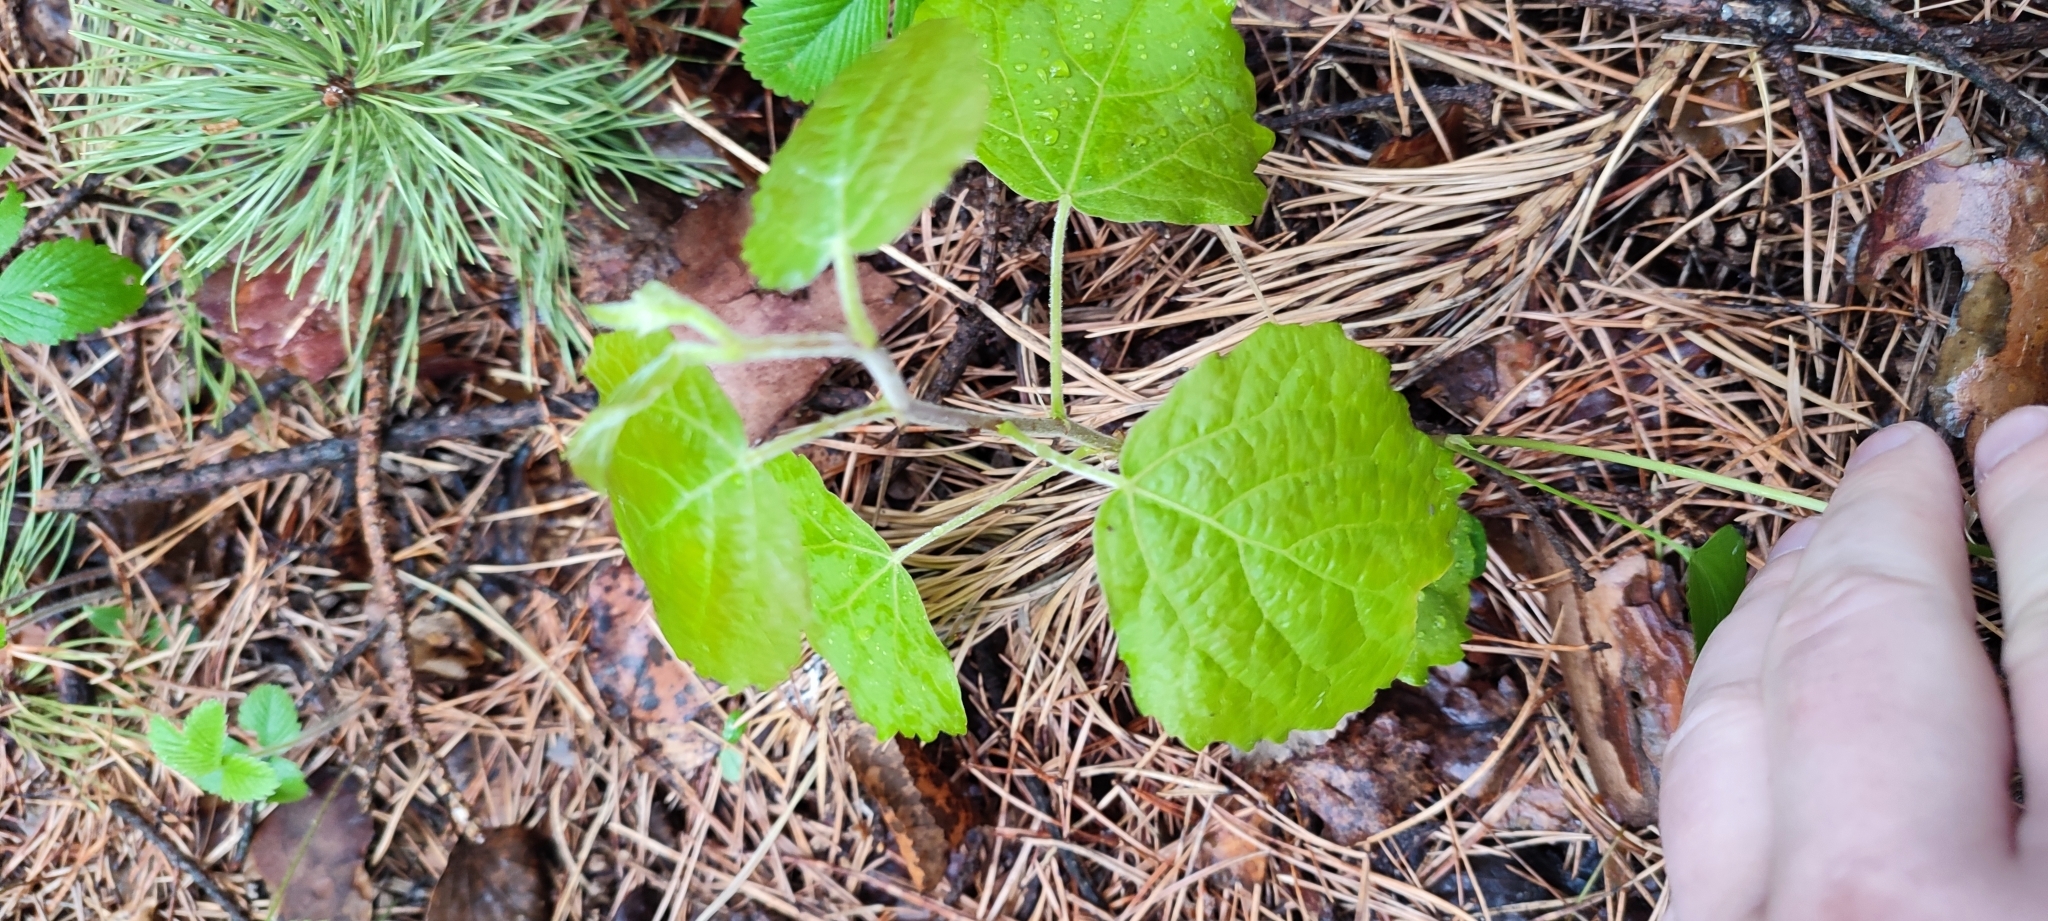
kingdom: Plantae
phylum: Tracheophyta
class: Magnoliopsida
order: Malpighiales
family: Salicaceae
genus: Populus
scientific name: Populus tremula
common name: European aspen
